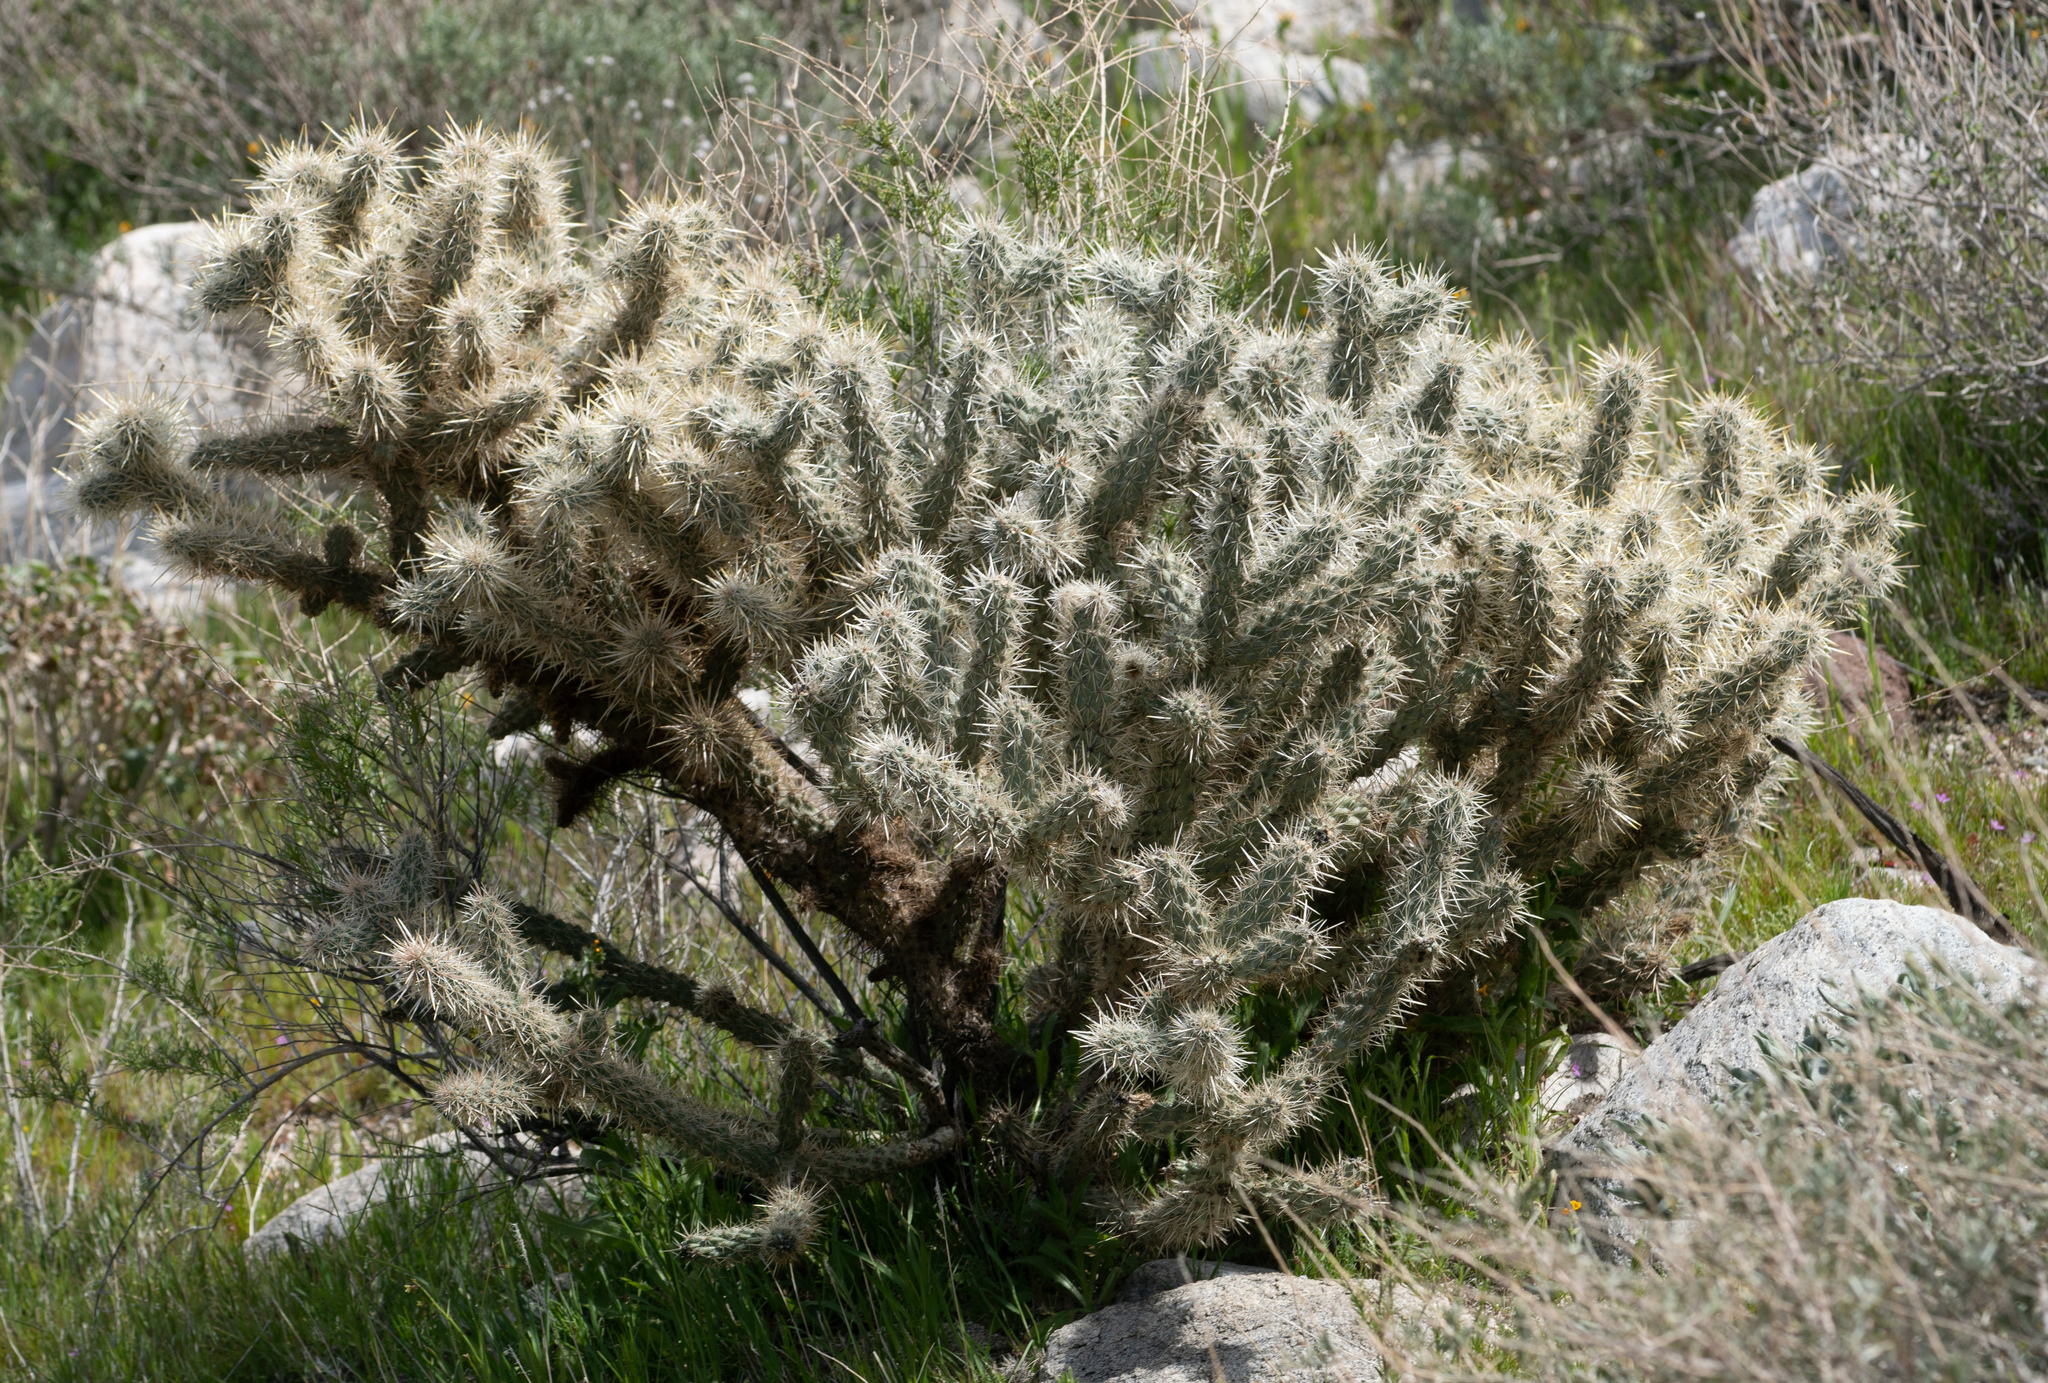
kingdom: Plantae
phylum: Tracheophyta
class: Magnoliopsida
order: Caryophyllales
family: Cactaceae
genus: Cylindropuntia
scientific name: Cylindropuntia echinocarpa
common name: Ground cholla
